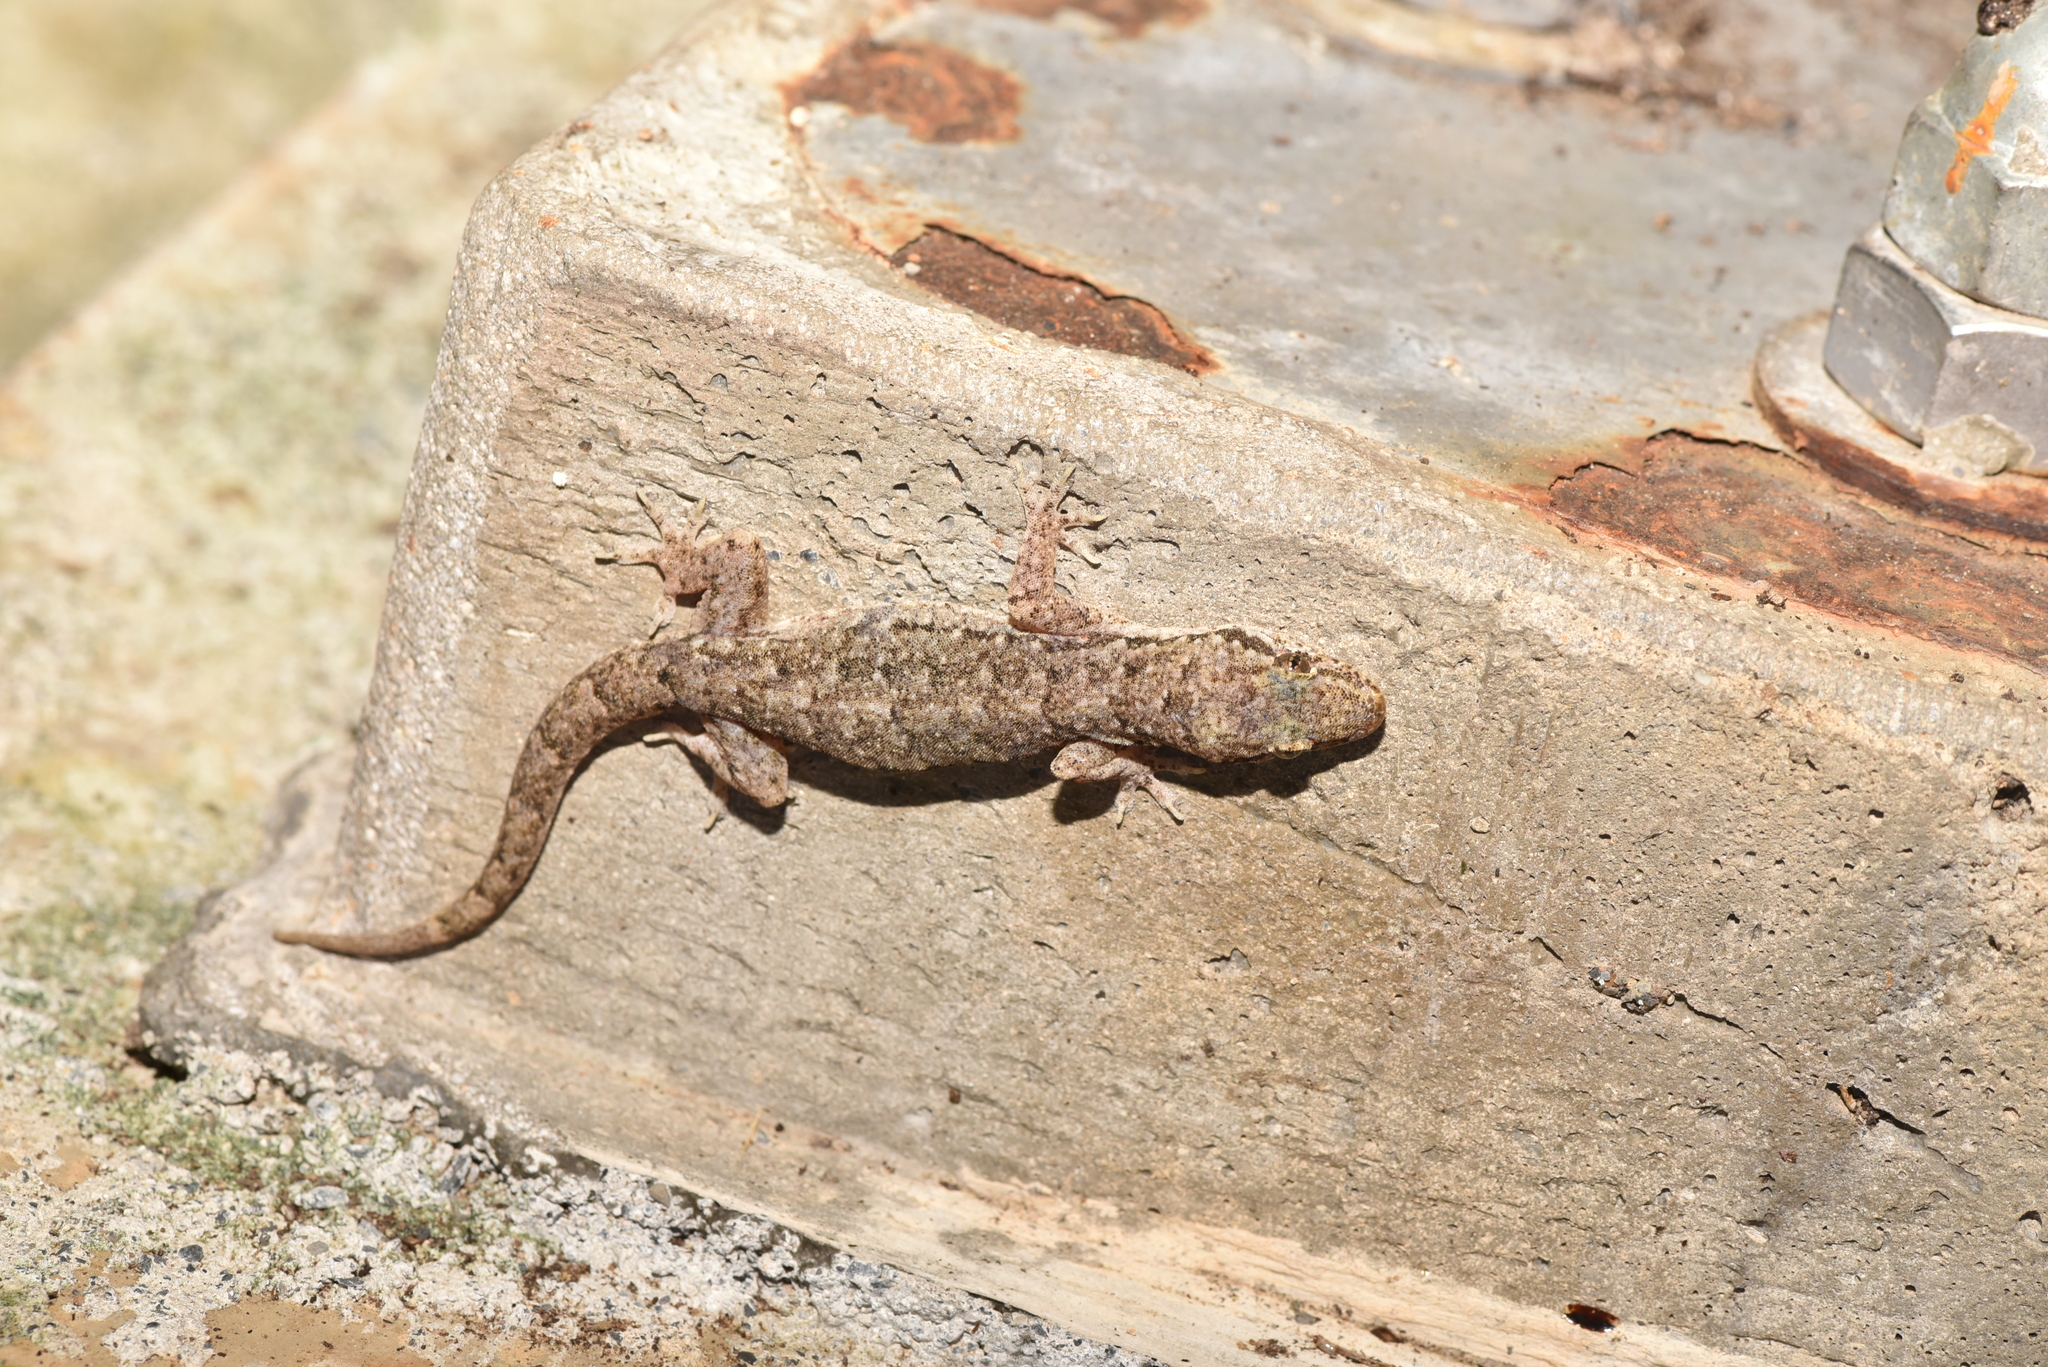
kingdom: Animalia
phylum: Chordata
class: Squamata
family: Gekkonidae
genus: Hemidactylus
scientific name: Hemidactylus bowringii
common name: Oriental leaf-toed gecko
